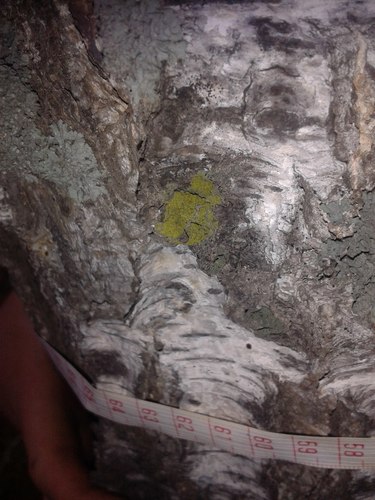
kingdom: Fungi
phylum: Ascomycota
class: Lecanoromycetes
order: Caliciales
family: Caliciaceae
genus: Calicium
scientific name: Calicium
